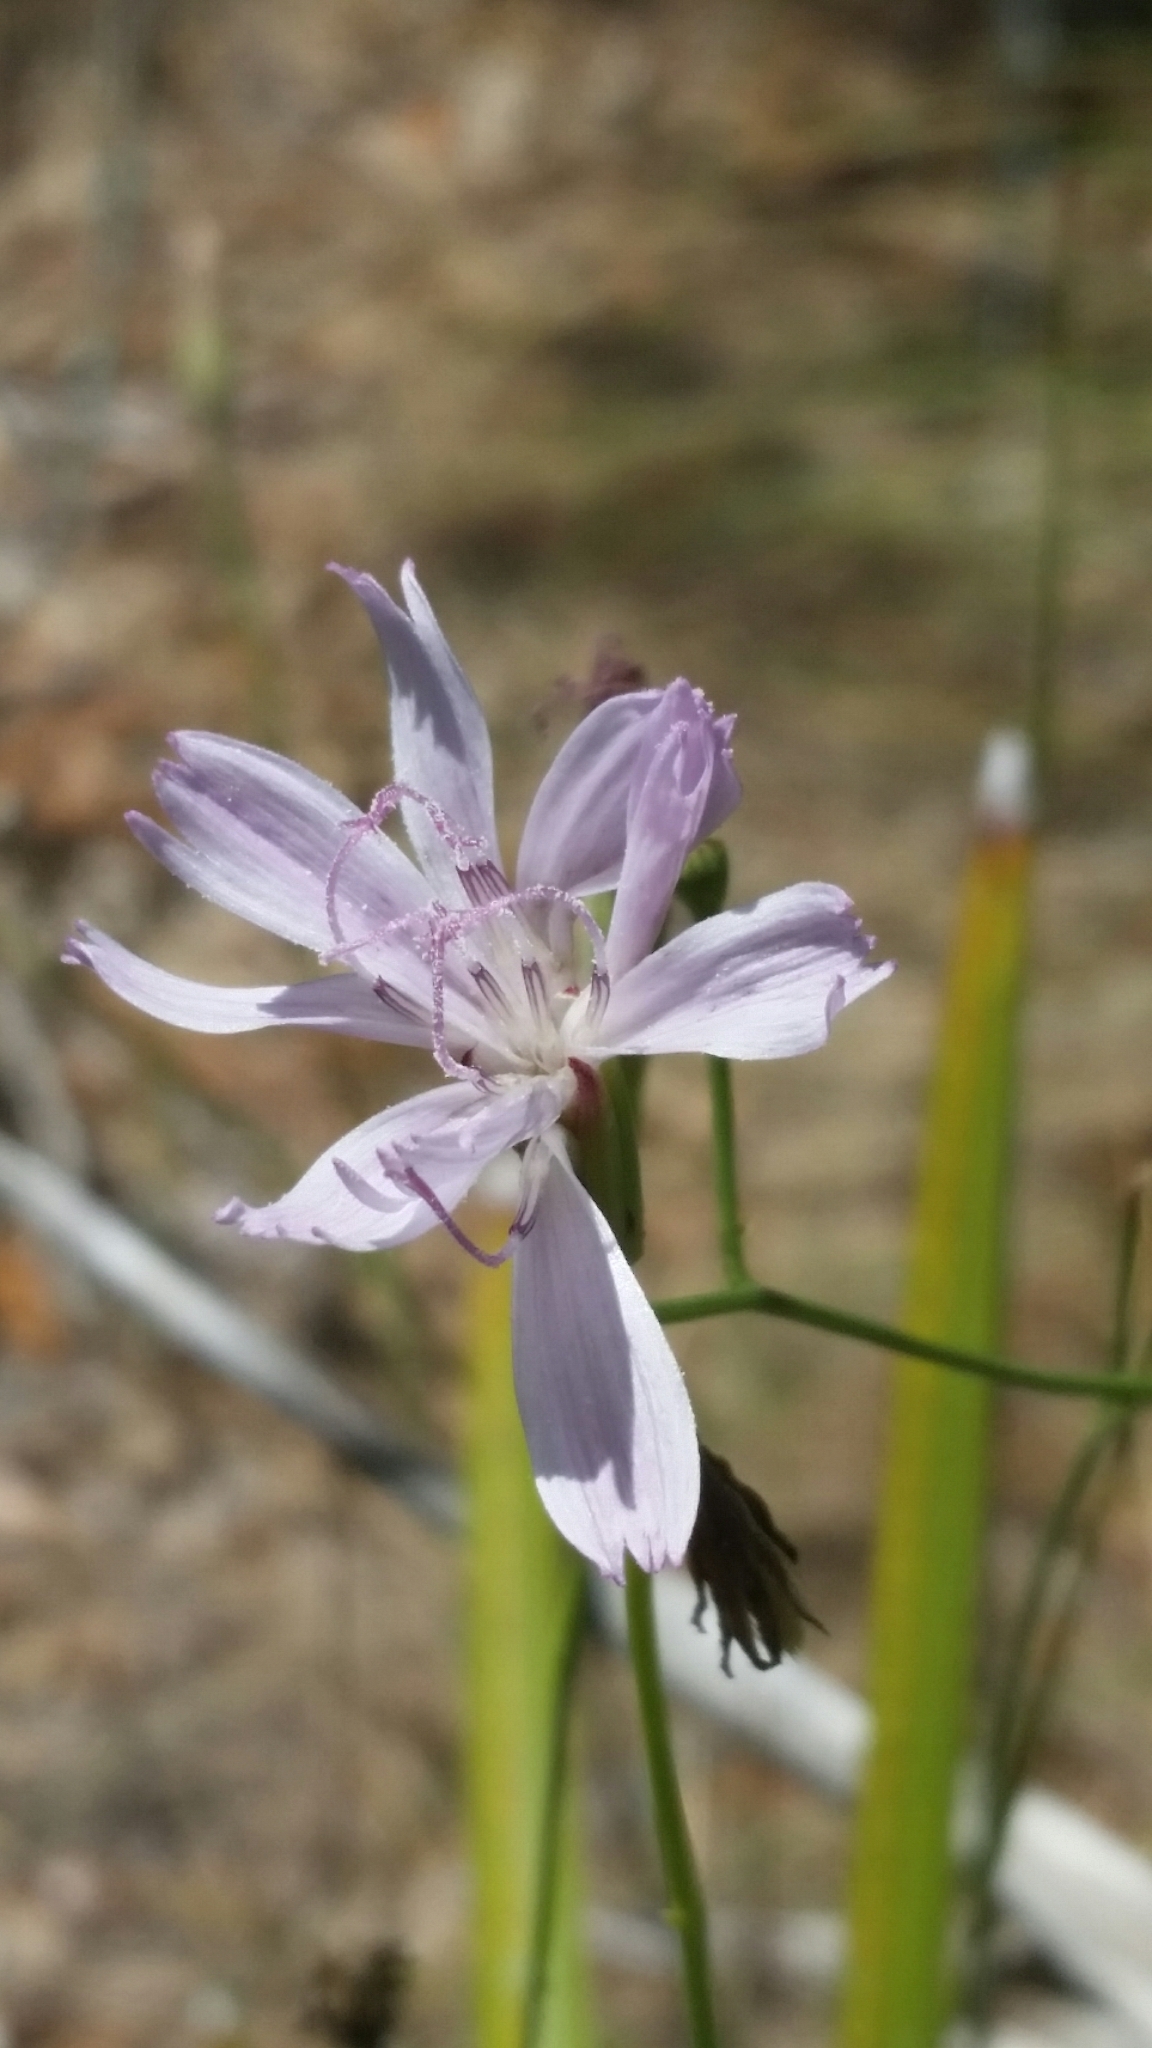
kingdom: Plantae
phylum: Tracheophyta
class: Magnoliopsida
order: Asterales
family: Asteraceae
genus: Lygodesmia
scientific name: Lygodesmia aphylla
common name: Rose-rush
